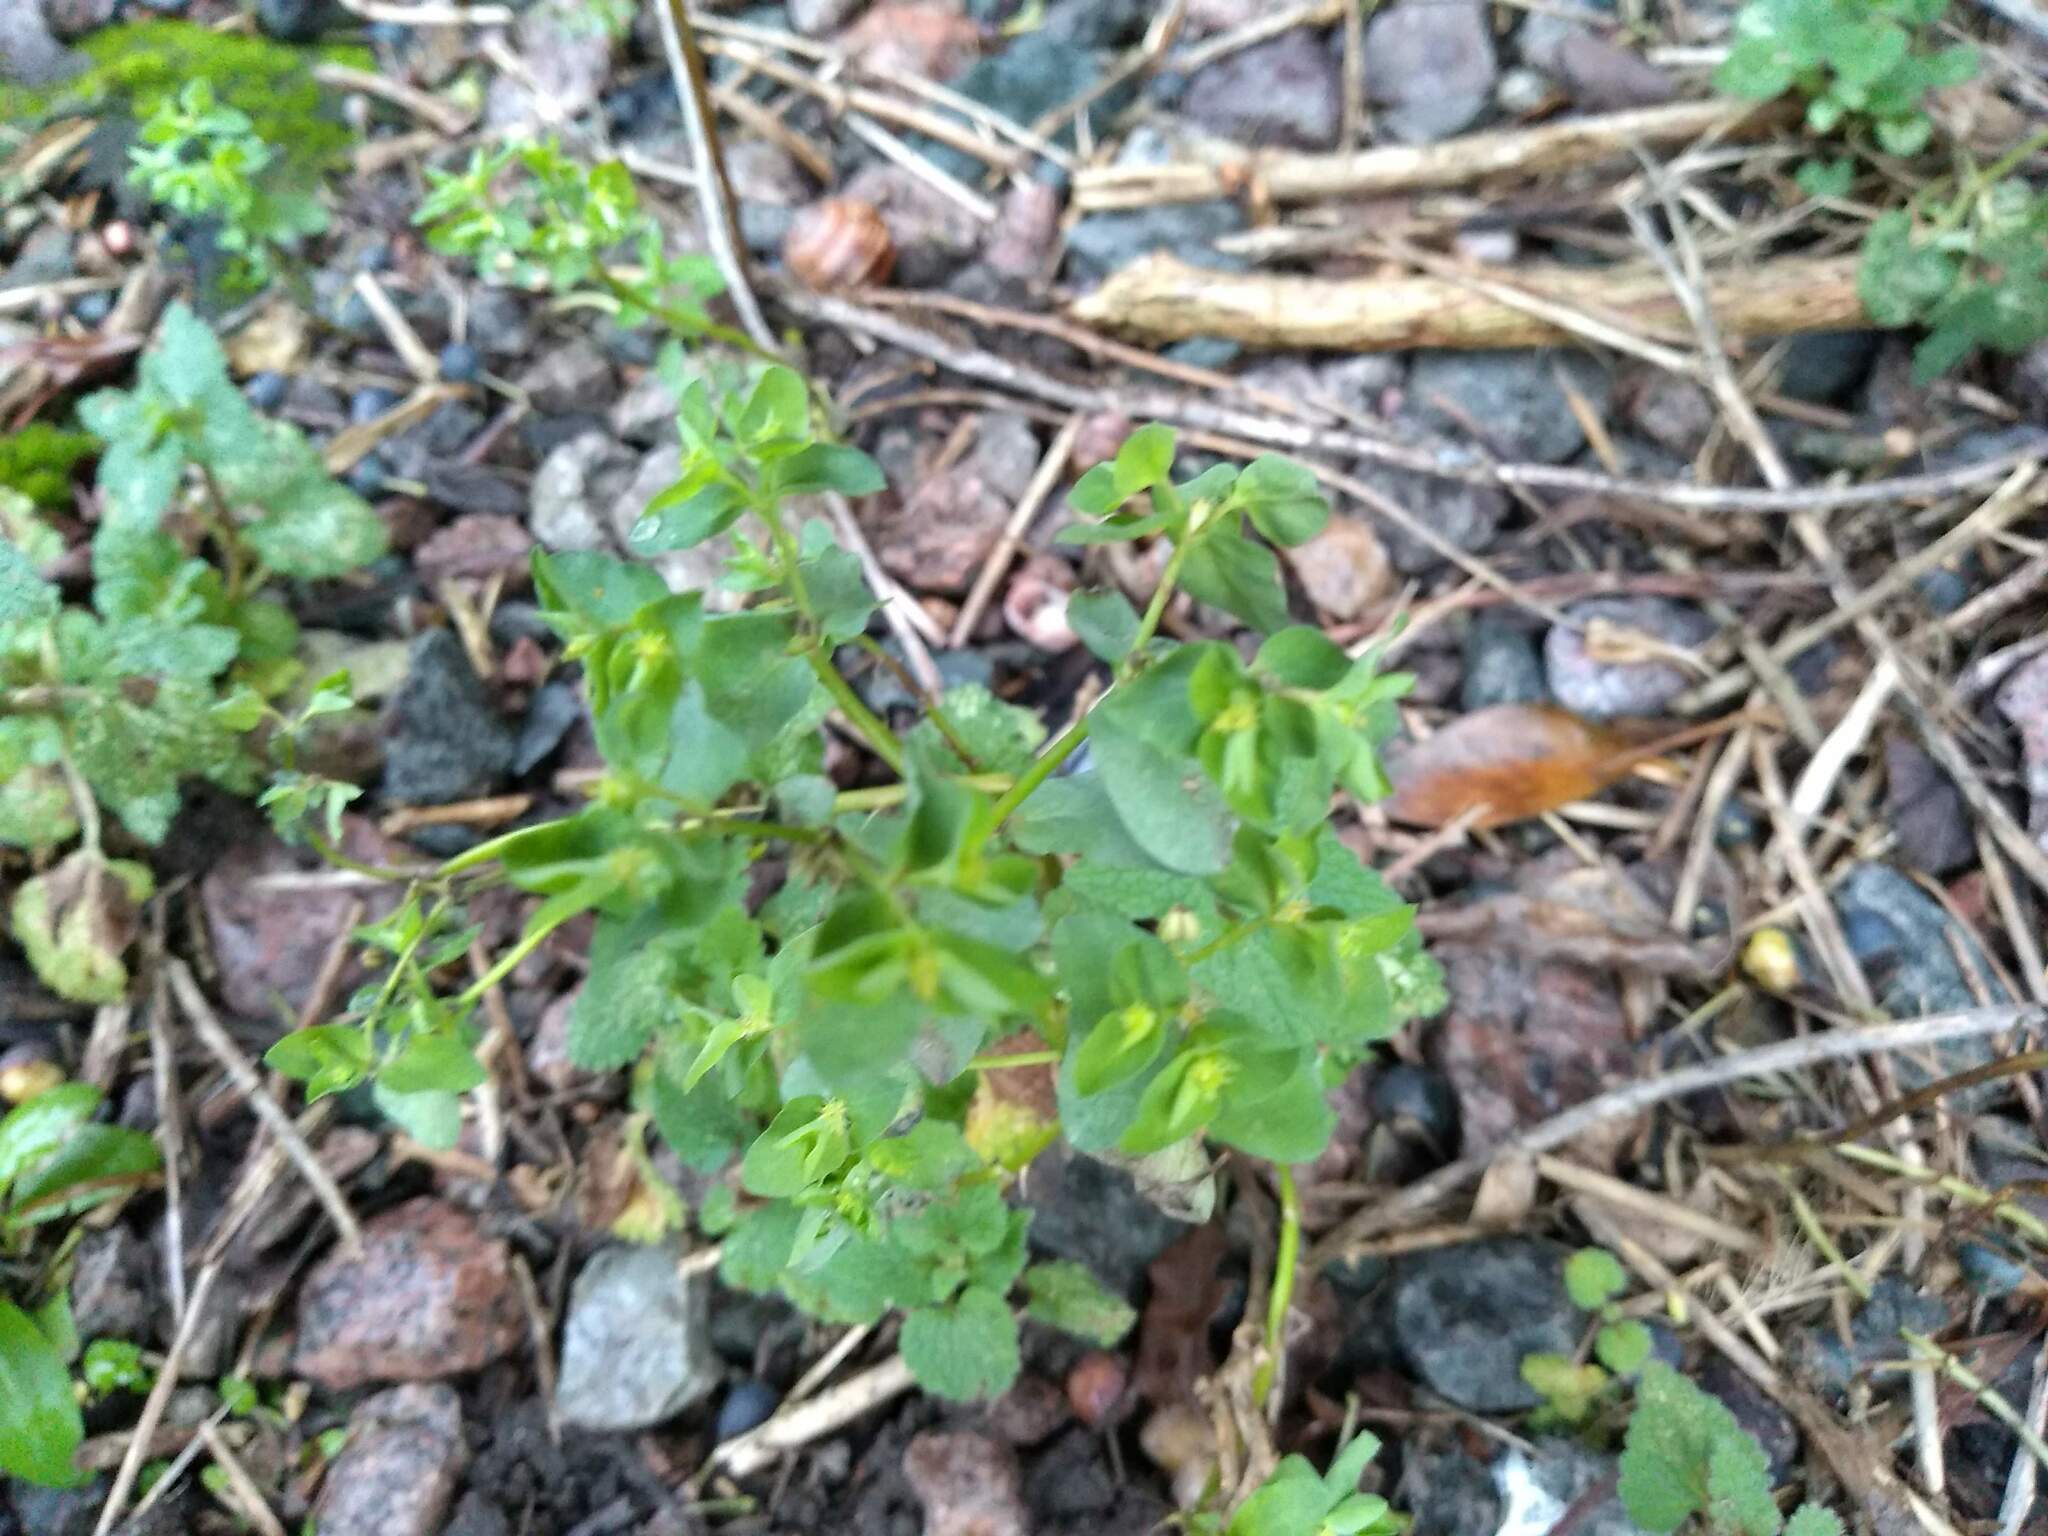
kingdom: Plantae
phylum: Tracheophyta
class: Magnoliopsida
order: Malpighiales
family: Euphorbiaceae
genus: Euphorbia
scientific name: Euphorbia peplus
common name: Petty spurge
